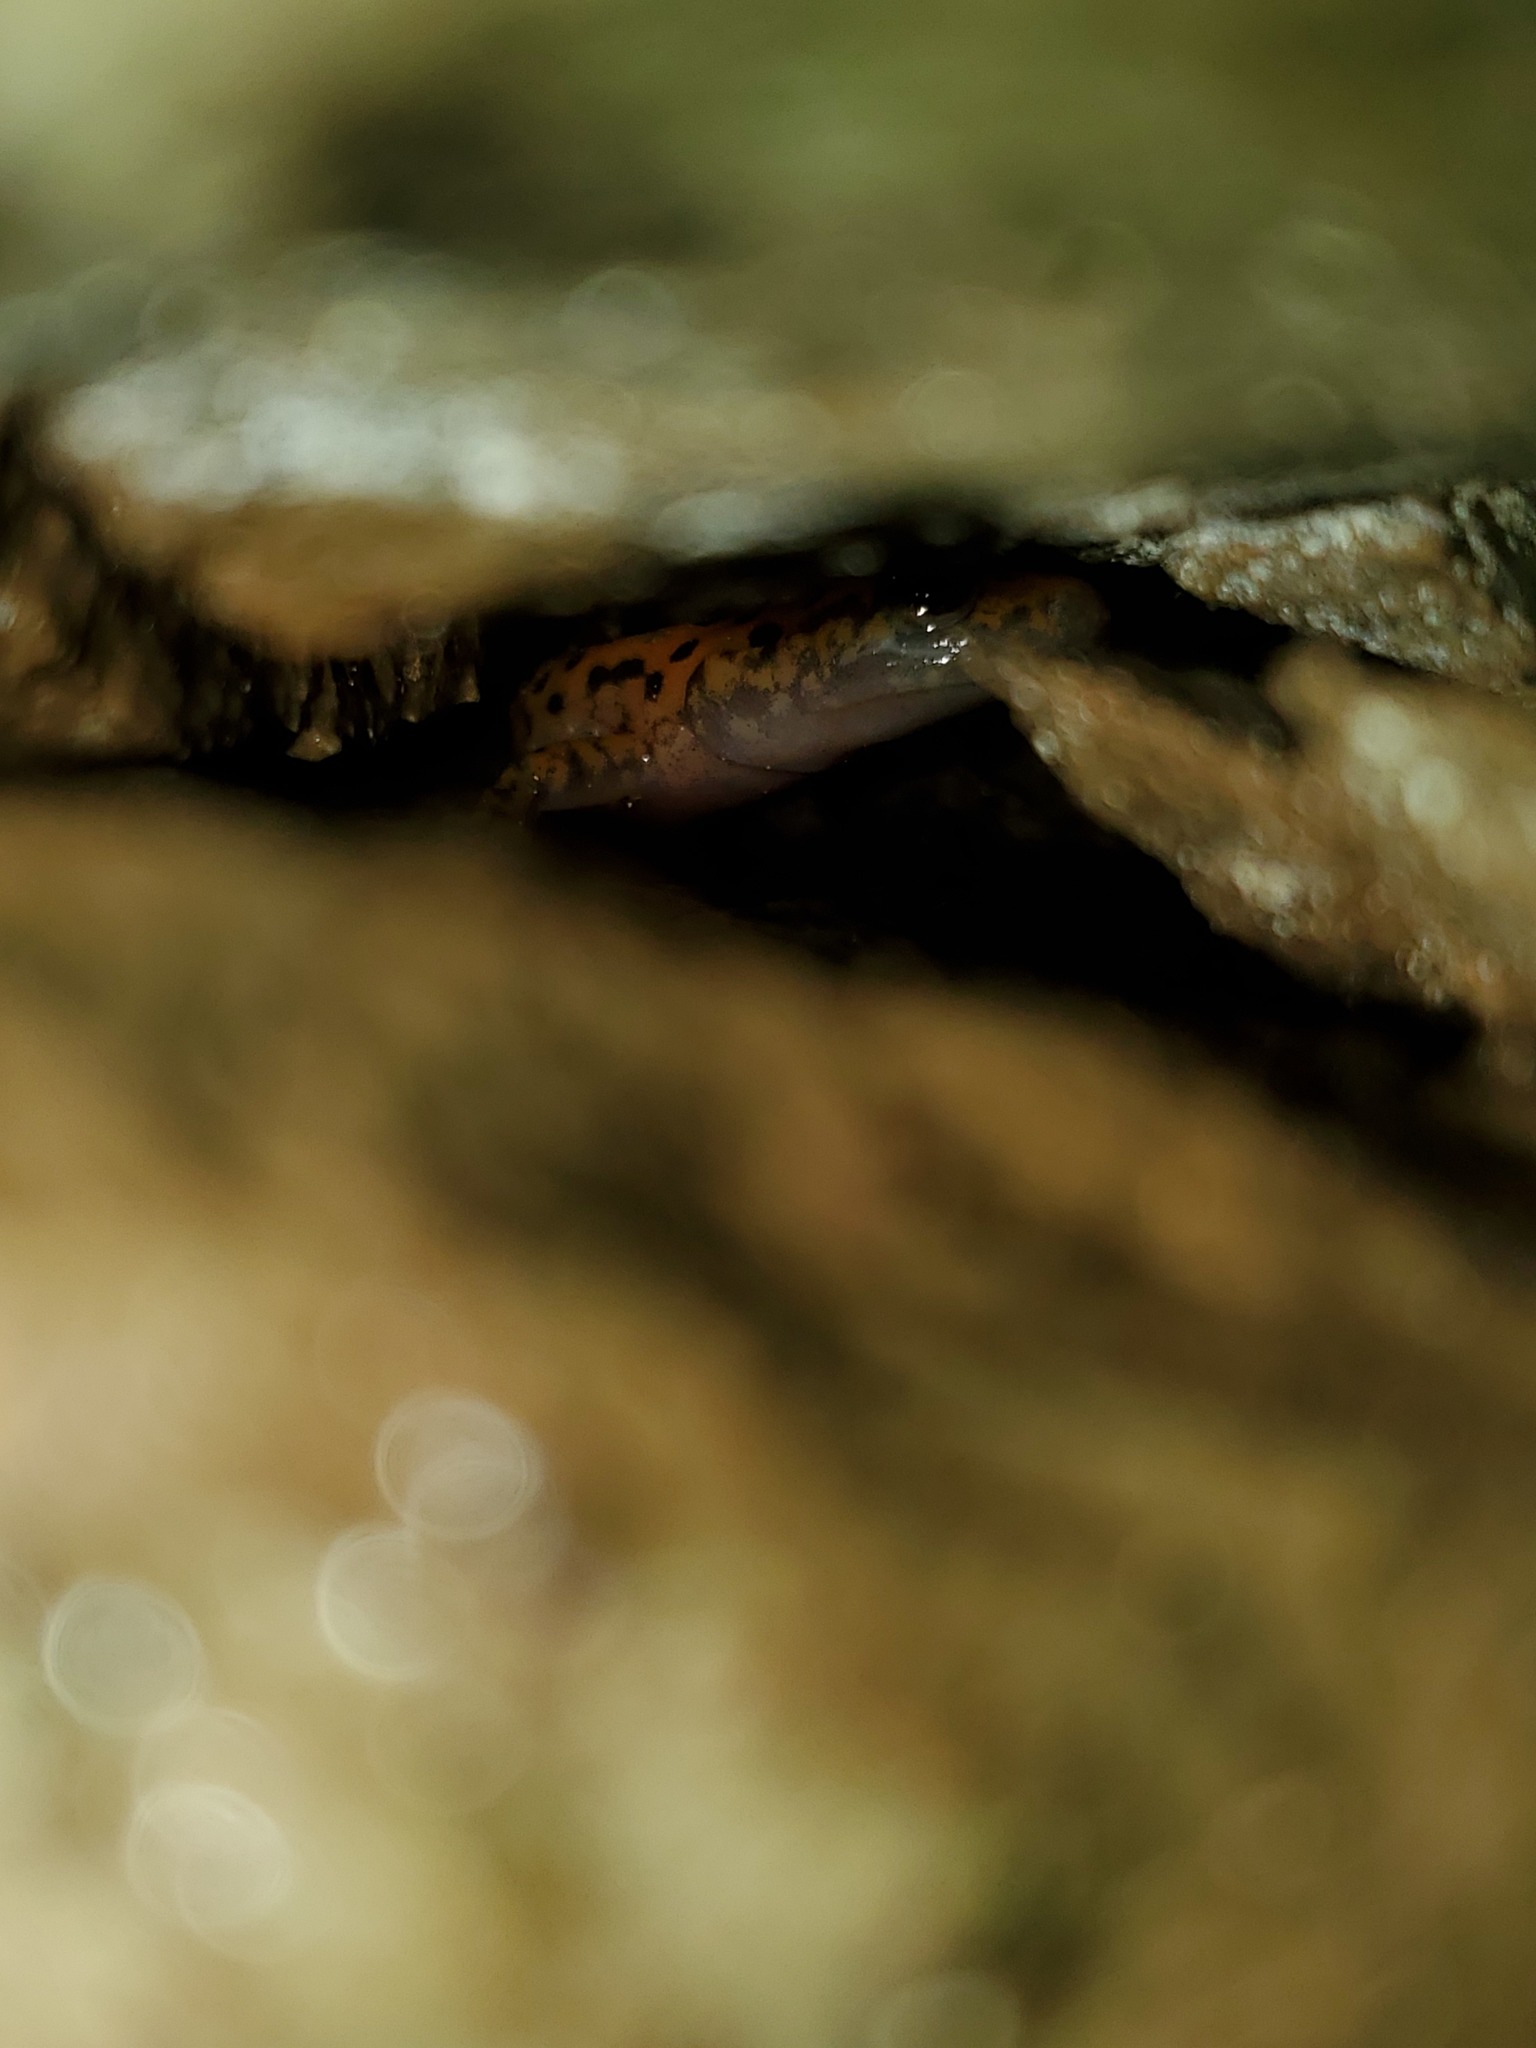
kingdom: Animalia
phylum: Chordata
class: Amphibia
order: Caudata
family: Plethodontidae
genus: Eurycea
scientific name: Eurycea lucifuga
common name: Cave salamander
